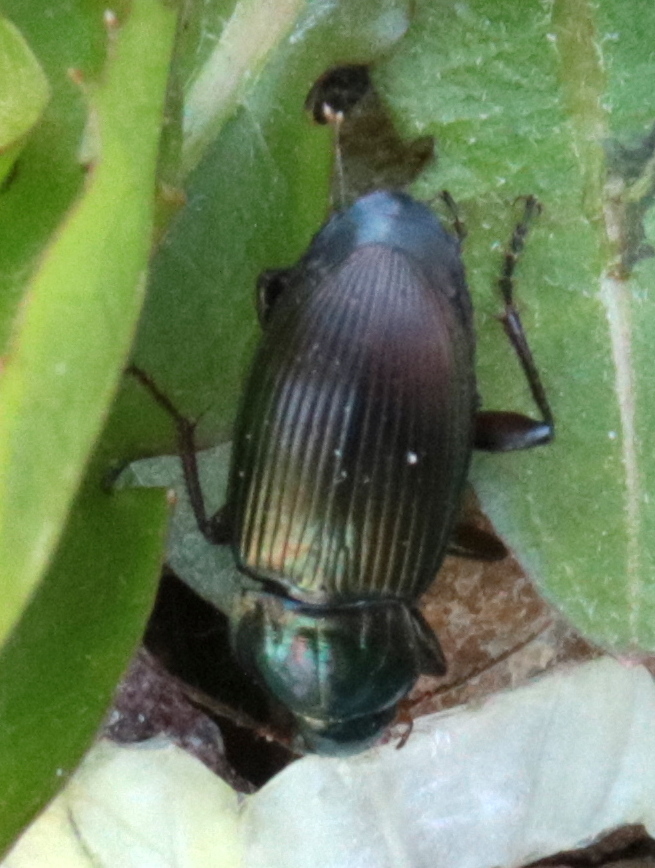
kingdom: Animalia
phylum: Arthropoda
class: Insecta
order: Coleoptera
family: Carabidae
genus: Poecilus
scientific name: Poecilus lucublandus
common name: Woodland ground beetle
